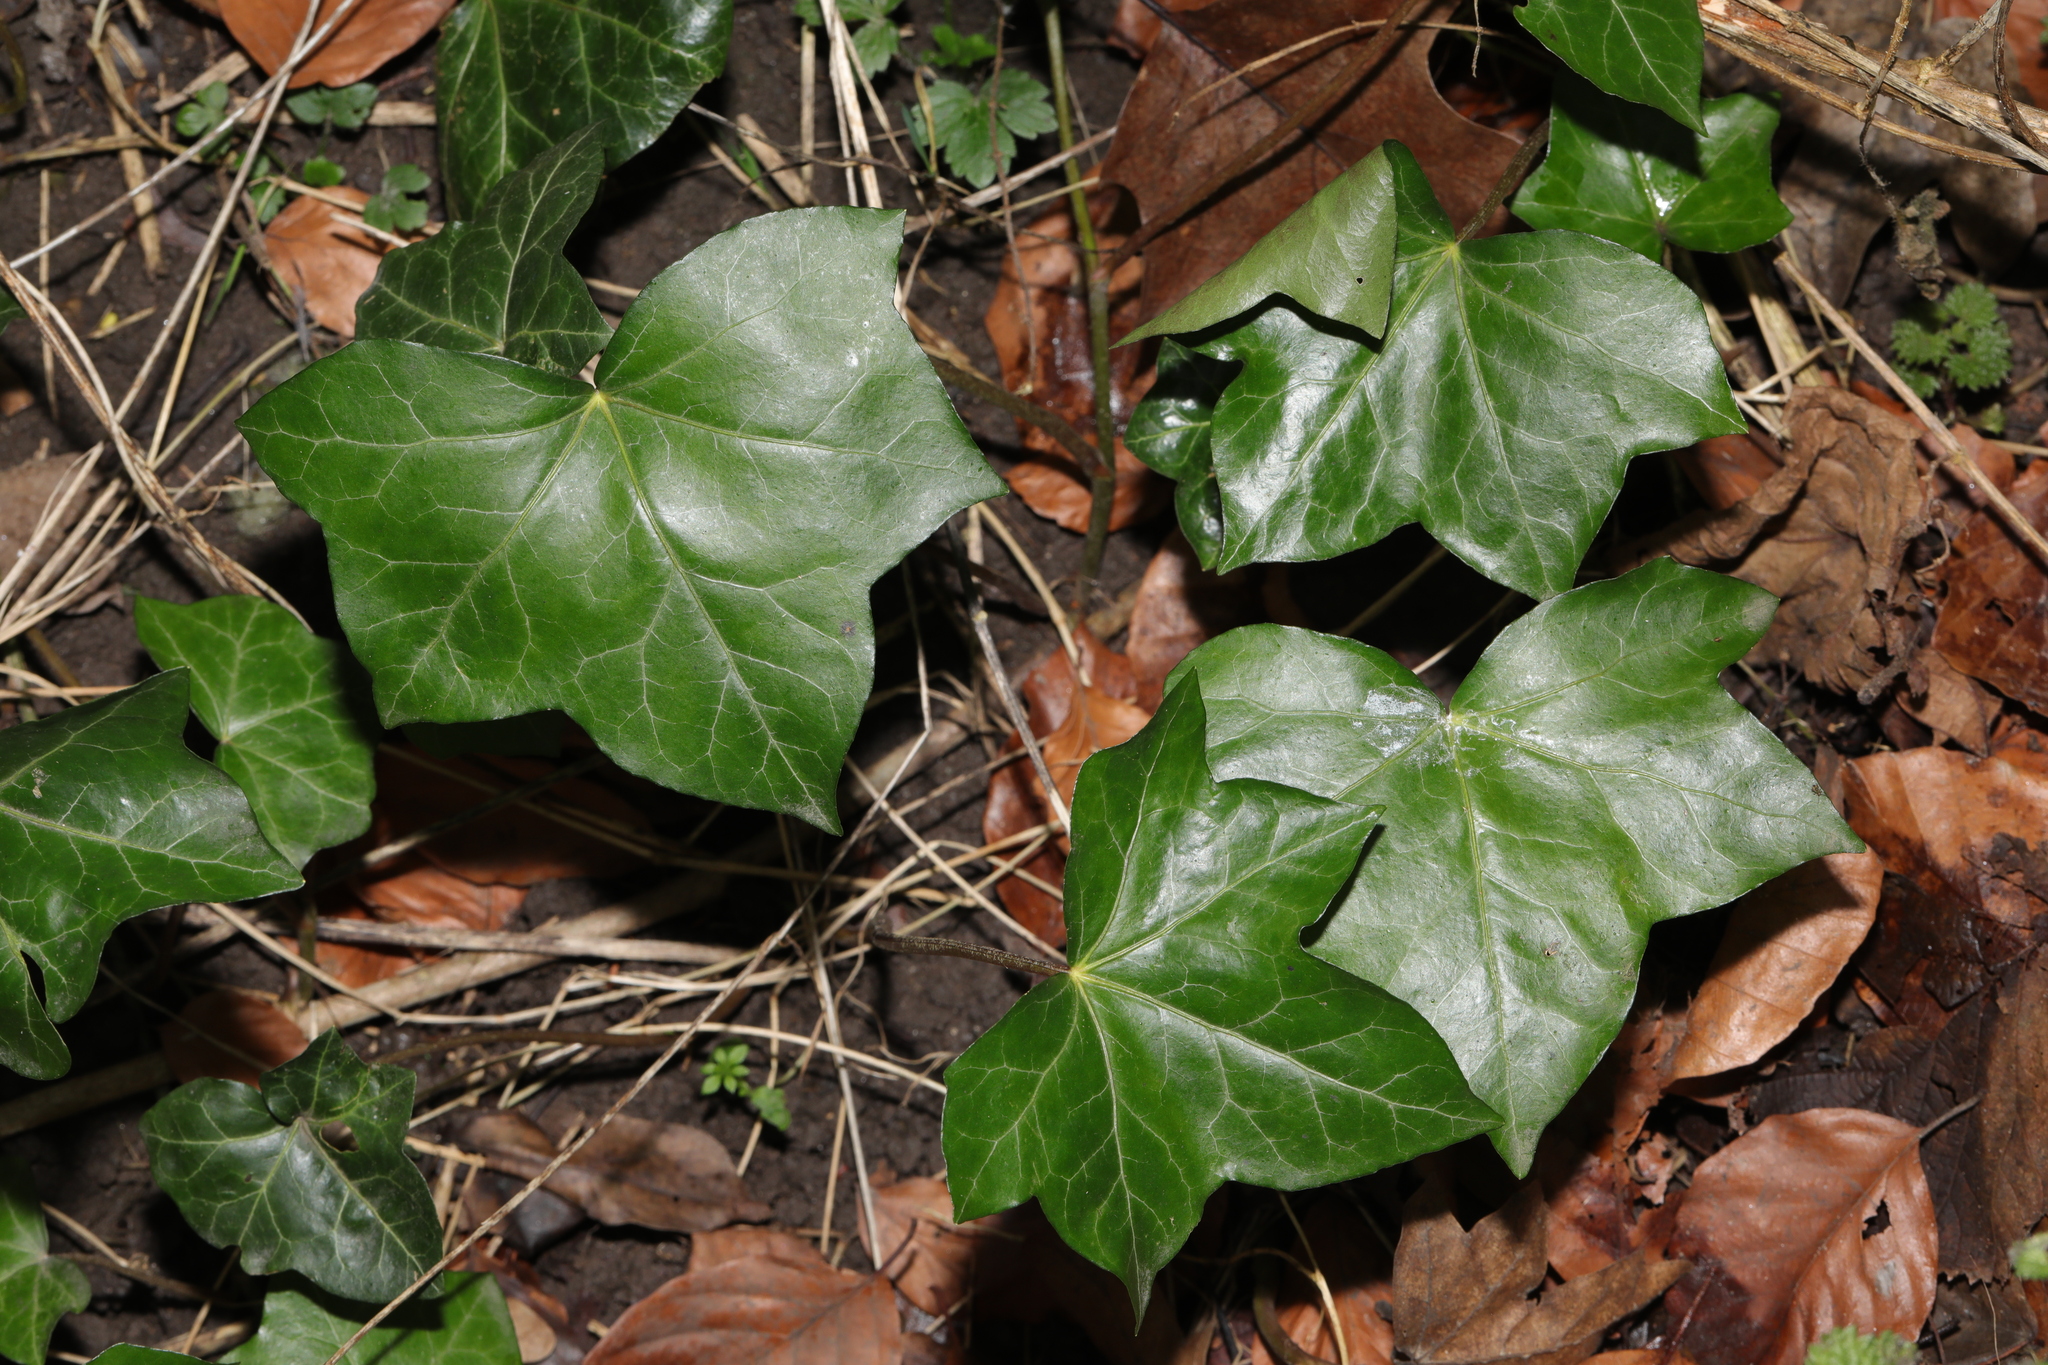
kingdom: Plantae
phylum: Tracheophyta
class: Magnoliopsida
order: Apiales
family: Araliaceae
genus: Hedera
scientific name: Hedera helix
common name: Ivy
